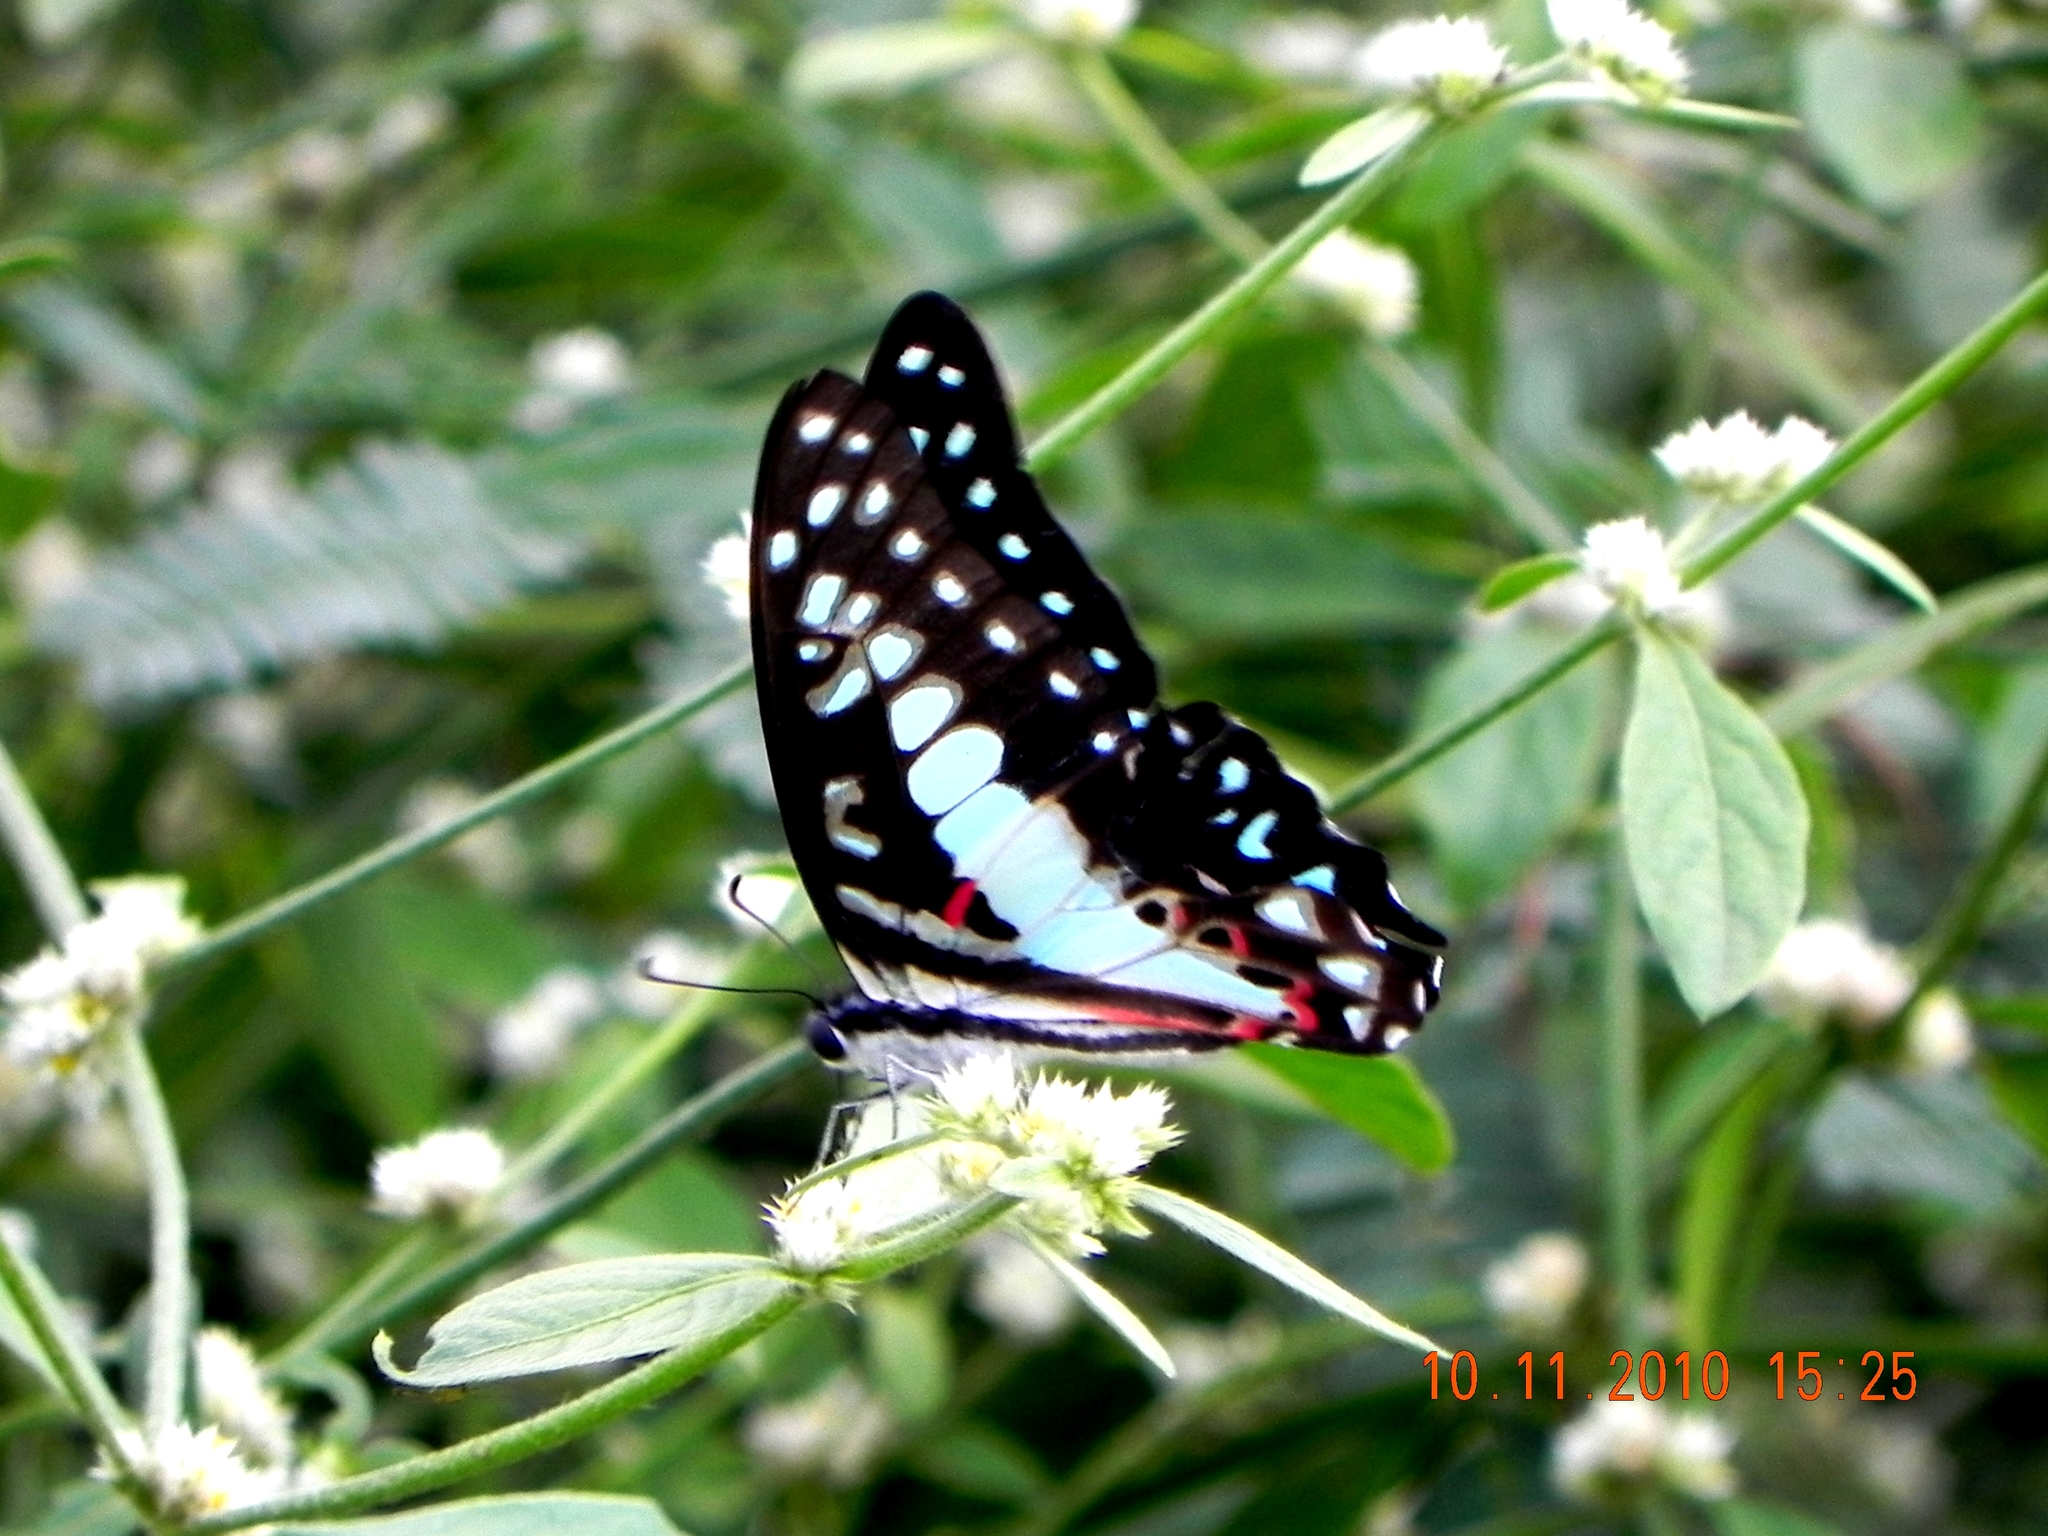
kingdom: Animalia
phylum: Arthropoda
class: Insecta
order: Lepidoptera
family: Papilionidae
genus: Graphium
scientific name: Graphium doson
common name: Common jay
